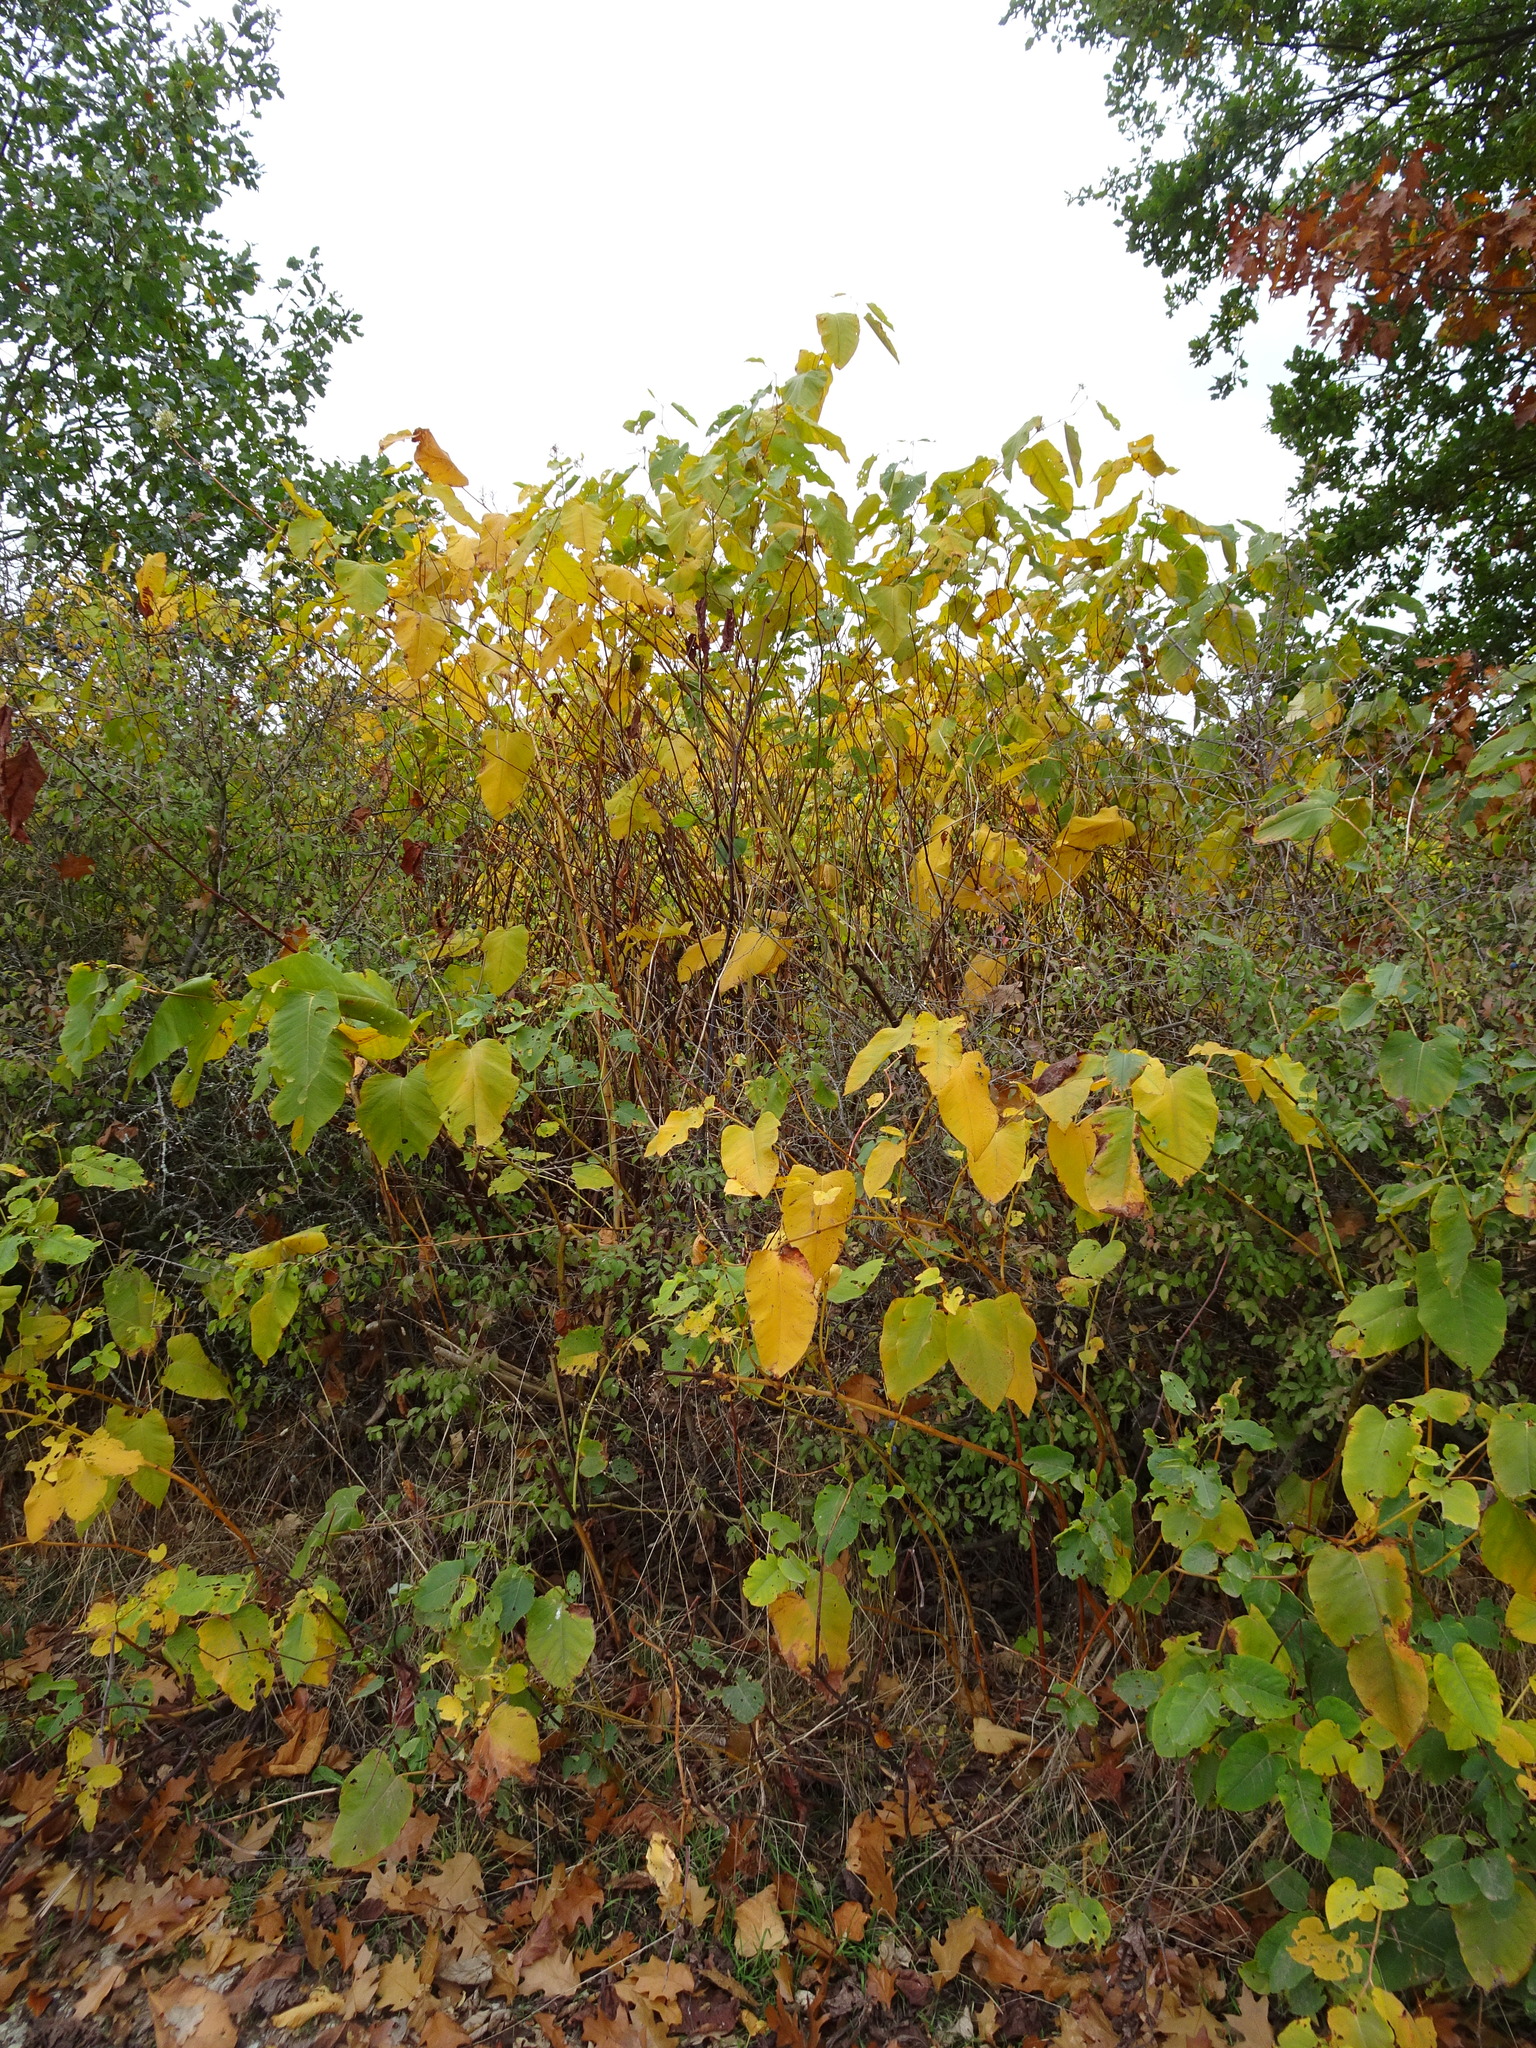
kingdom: Plantae
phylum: Tracheophyta
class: Magnoliopsida
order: Caryophyllales
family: Polygonaceae
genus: Reynoutria
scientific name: Reynoutria bohemica
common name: Bohemian knotweed
